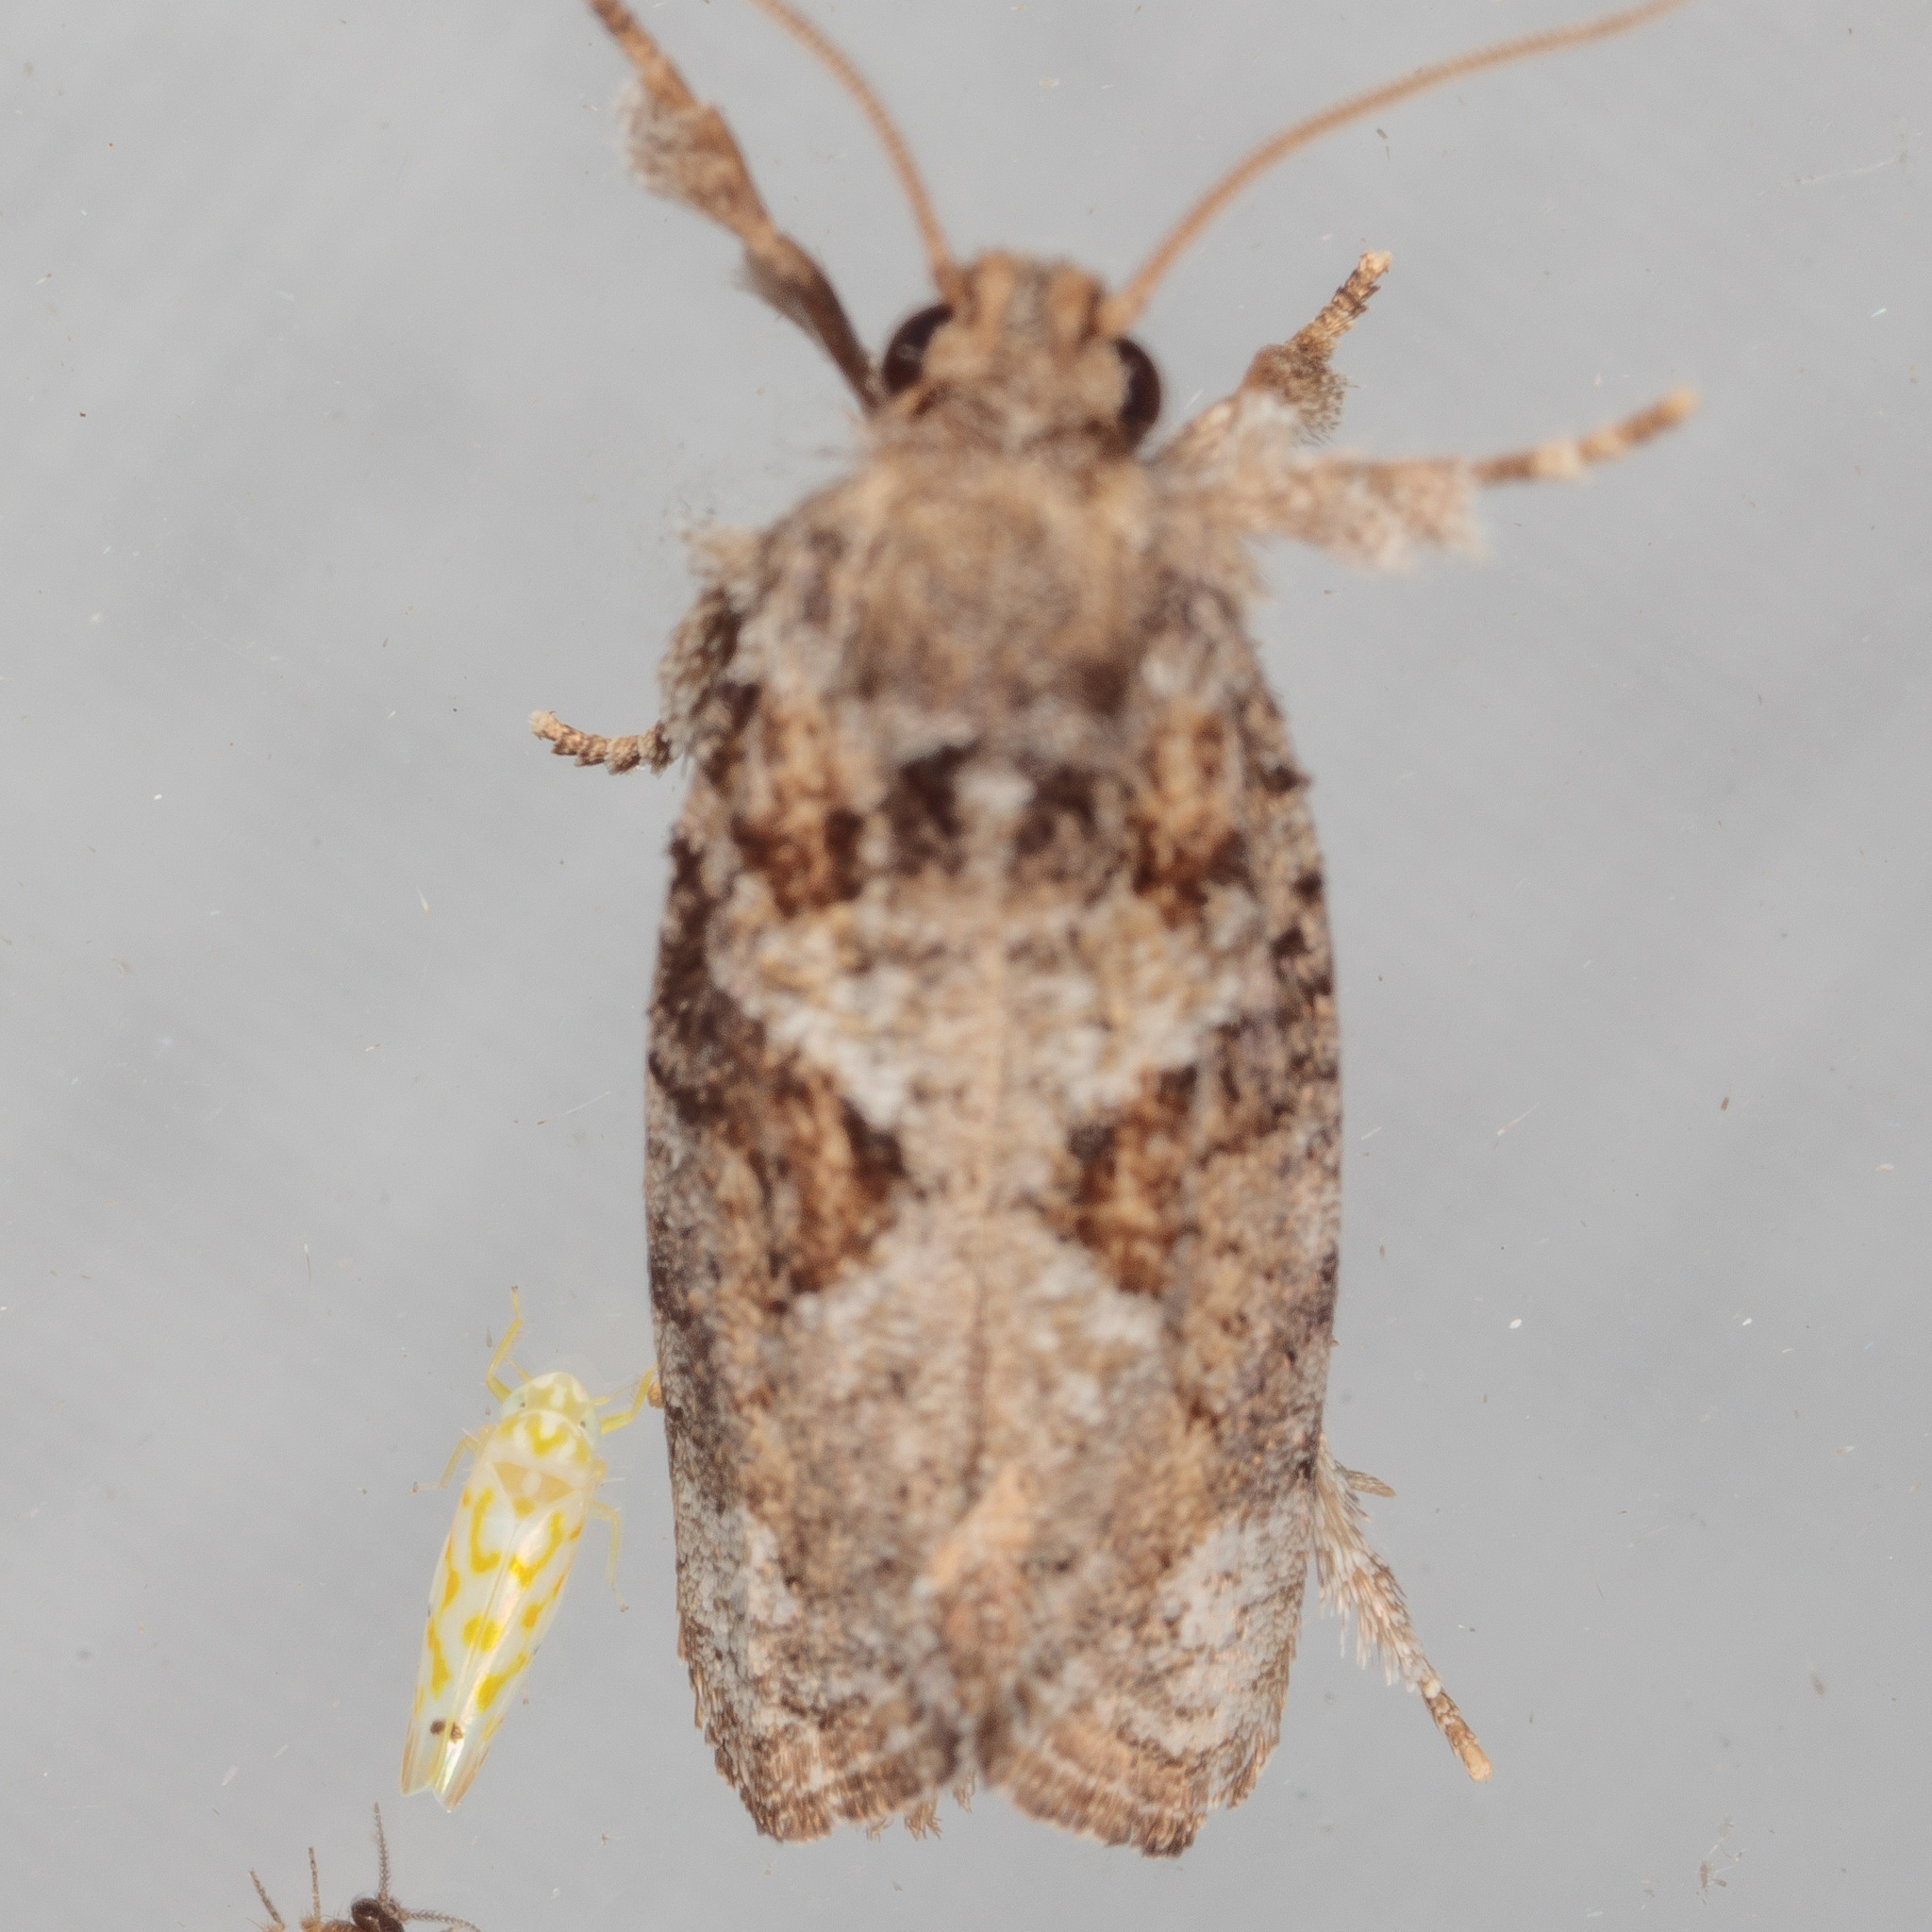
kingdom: Animalia
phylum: Arthropoda
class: Insecta
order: Lepidoptera
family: Tineidae
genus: Acrolophus
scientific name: Acrolophus piger
